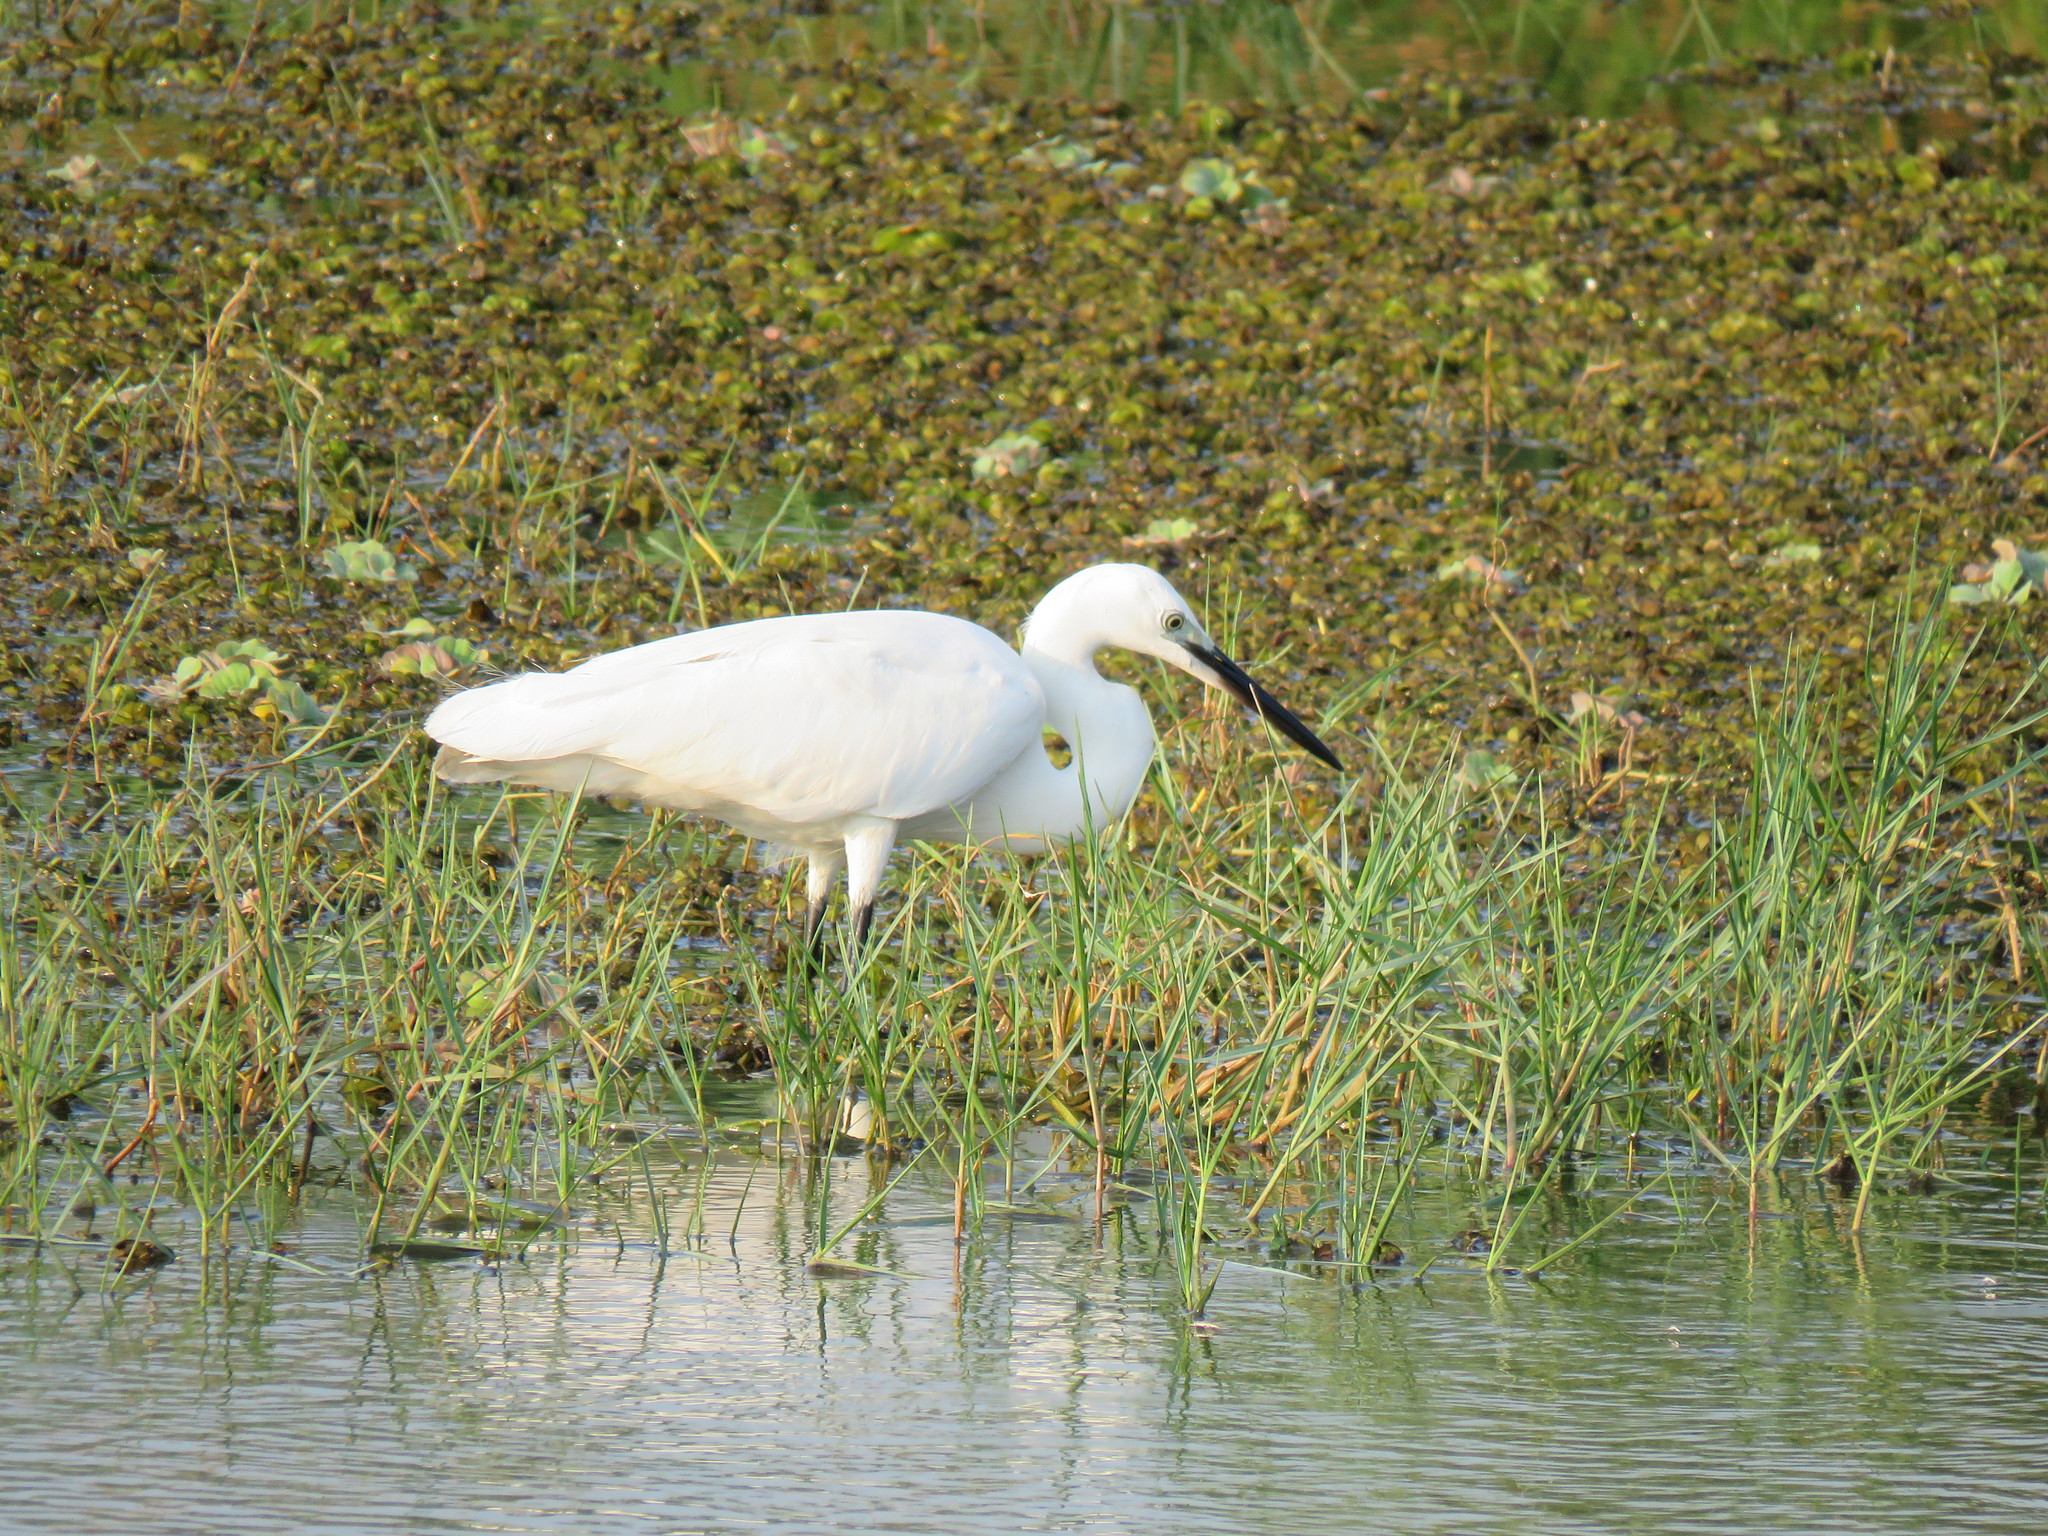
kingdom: Animalia
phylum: Chordata
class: Aves
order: Pelecaniformes
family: Ardeidae
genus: Egretta
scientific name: Egretta garzetta
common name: Little egret
